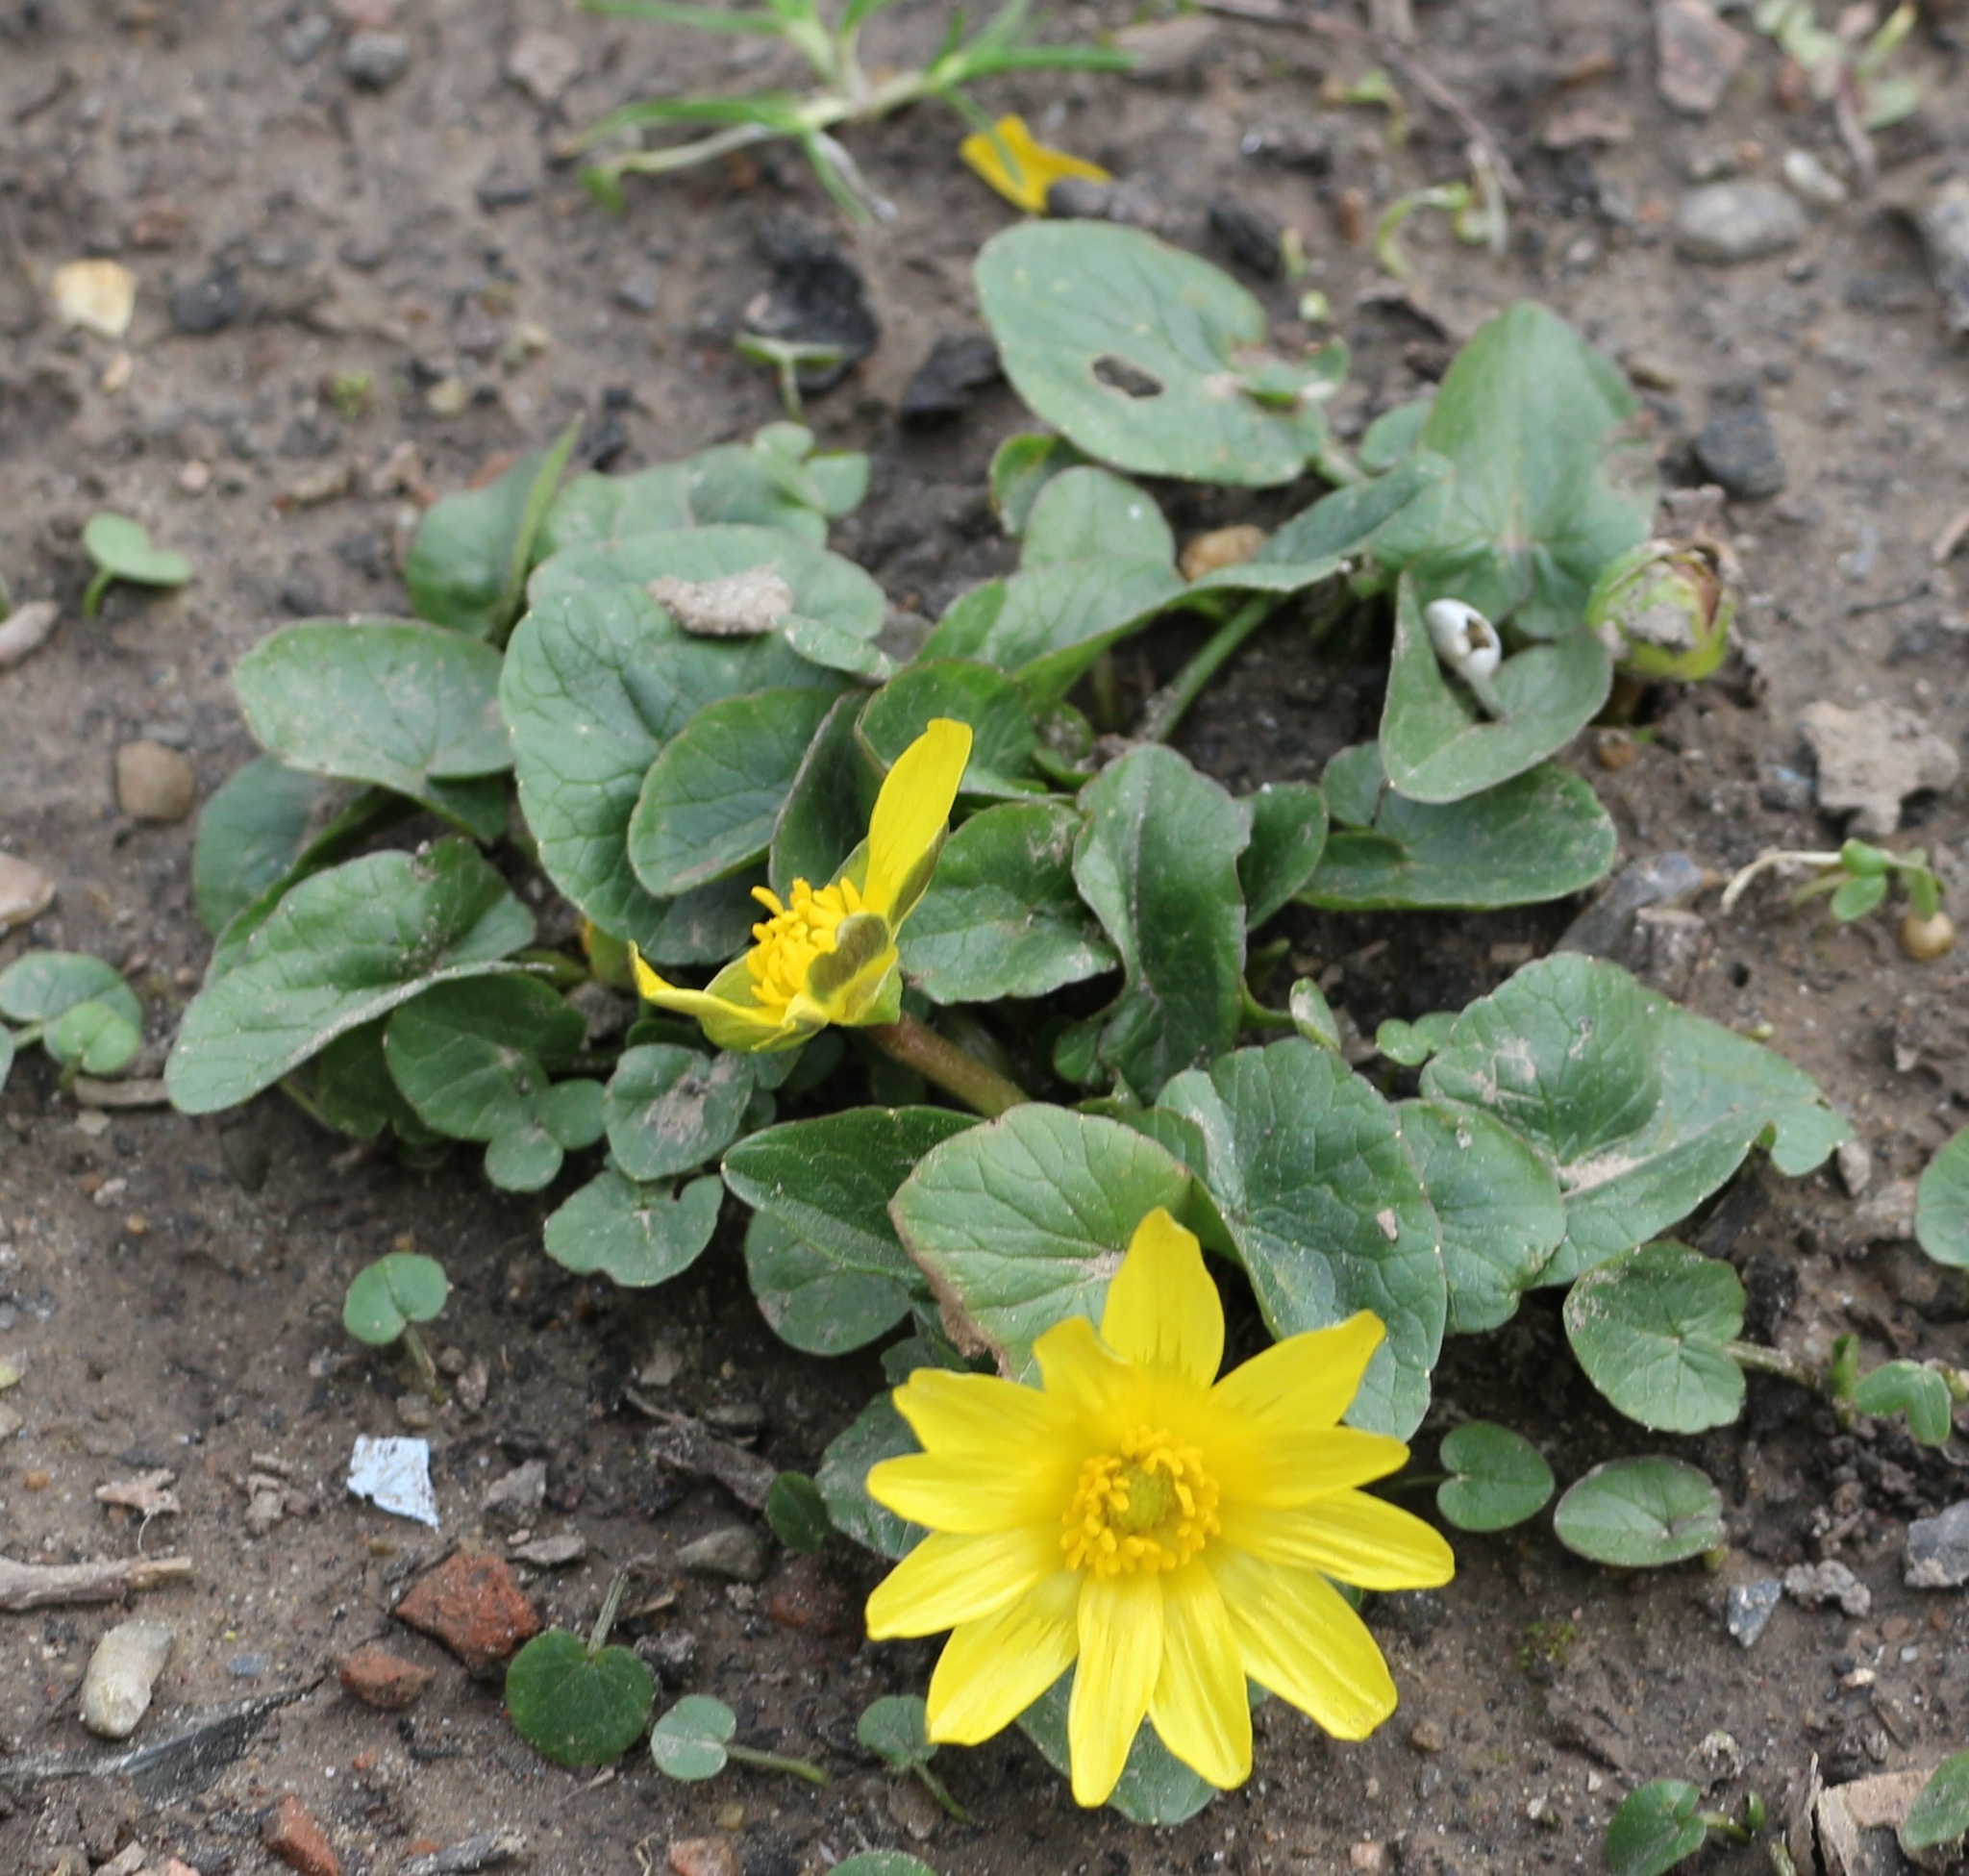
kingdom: Plantae
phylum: Tracheophyta
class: Magnoliopsida
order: Ranunculales
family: Ranunculaceae
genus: Ficaria
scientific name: Ficaria verna
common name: Lesser celandine
